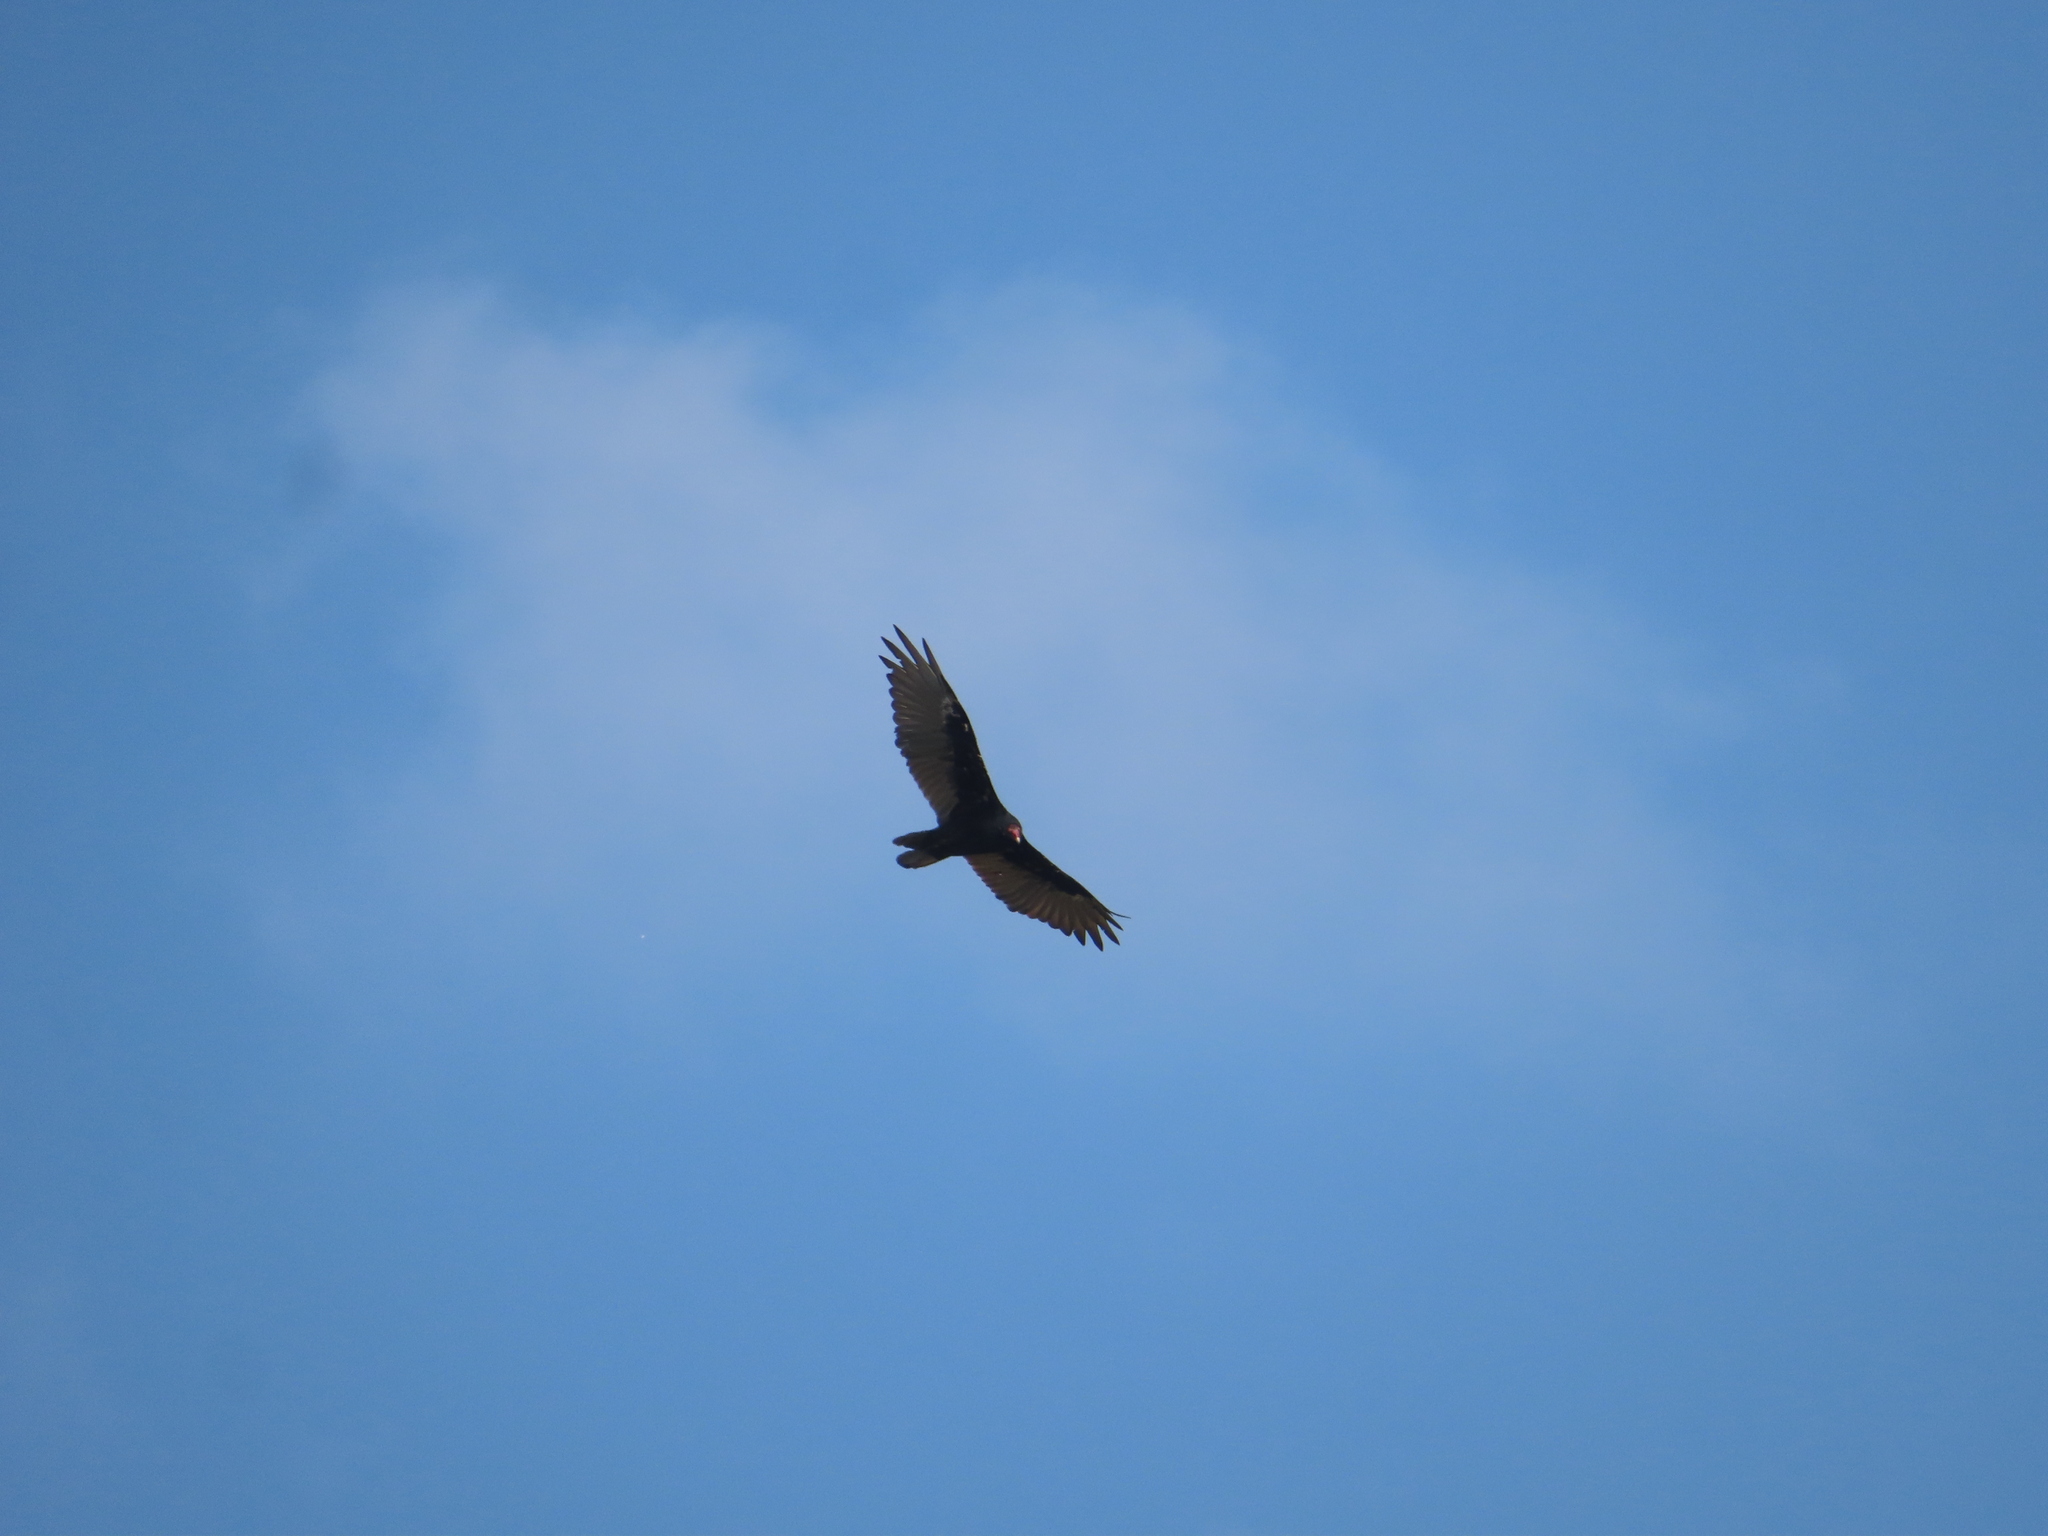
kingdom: Animalia
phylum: Chordata
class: Aves
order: Accipitriformes
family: Cathartidae
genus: Cathartes
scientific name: Cathartes aura
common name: Turkey vulture
